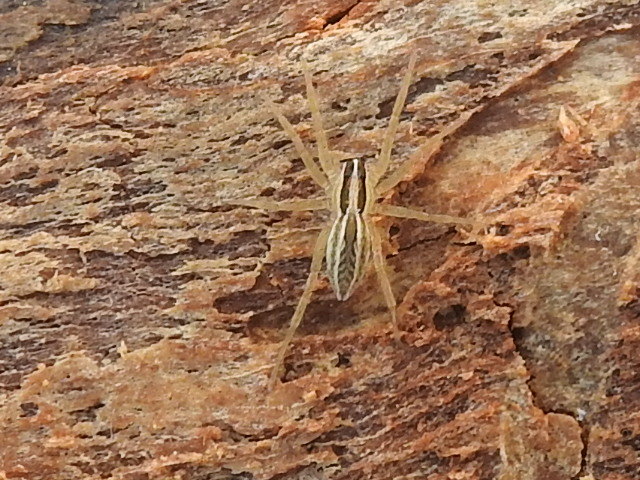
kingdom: Animalia
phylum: Arthropoda
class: Arachnida
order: Araneae
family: Lycosidae
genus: Rabidosa
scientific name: Rabidosa rabida
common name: Rabid wolf spider
